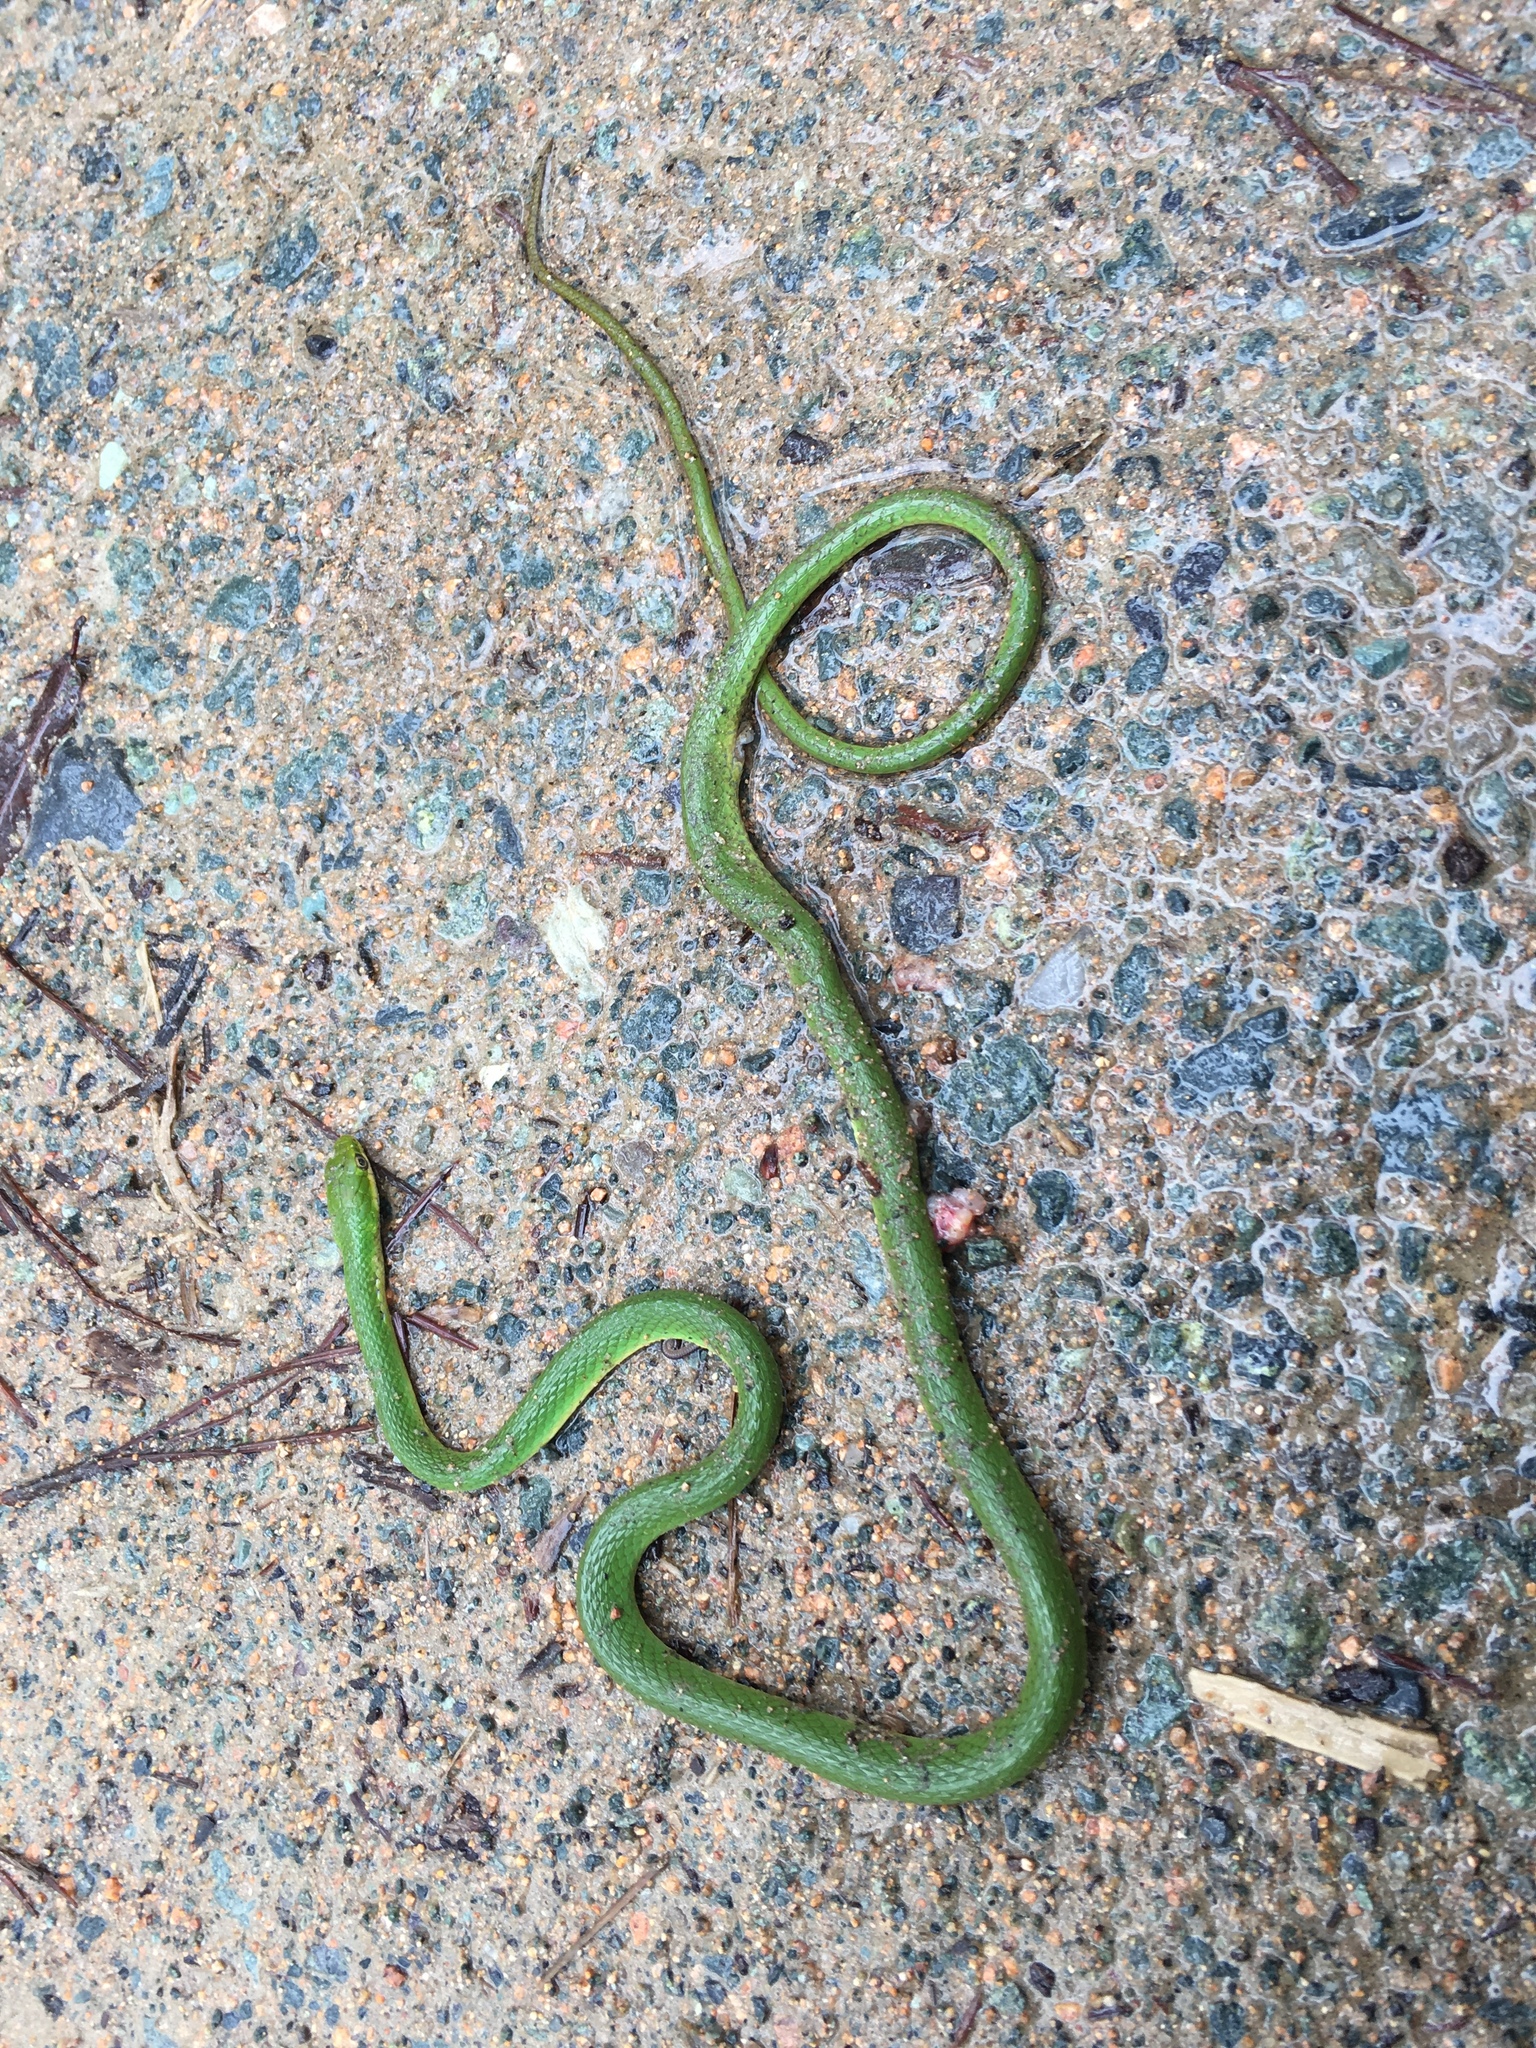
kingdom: Animalia
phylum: Chordata
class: Squamata
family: Colubridae
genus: Opheodrys
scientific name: Opheodrys aestivus
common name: Rough greensnake
